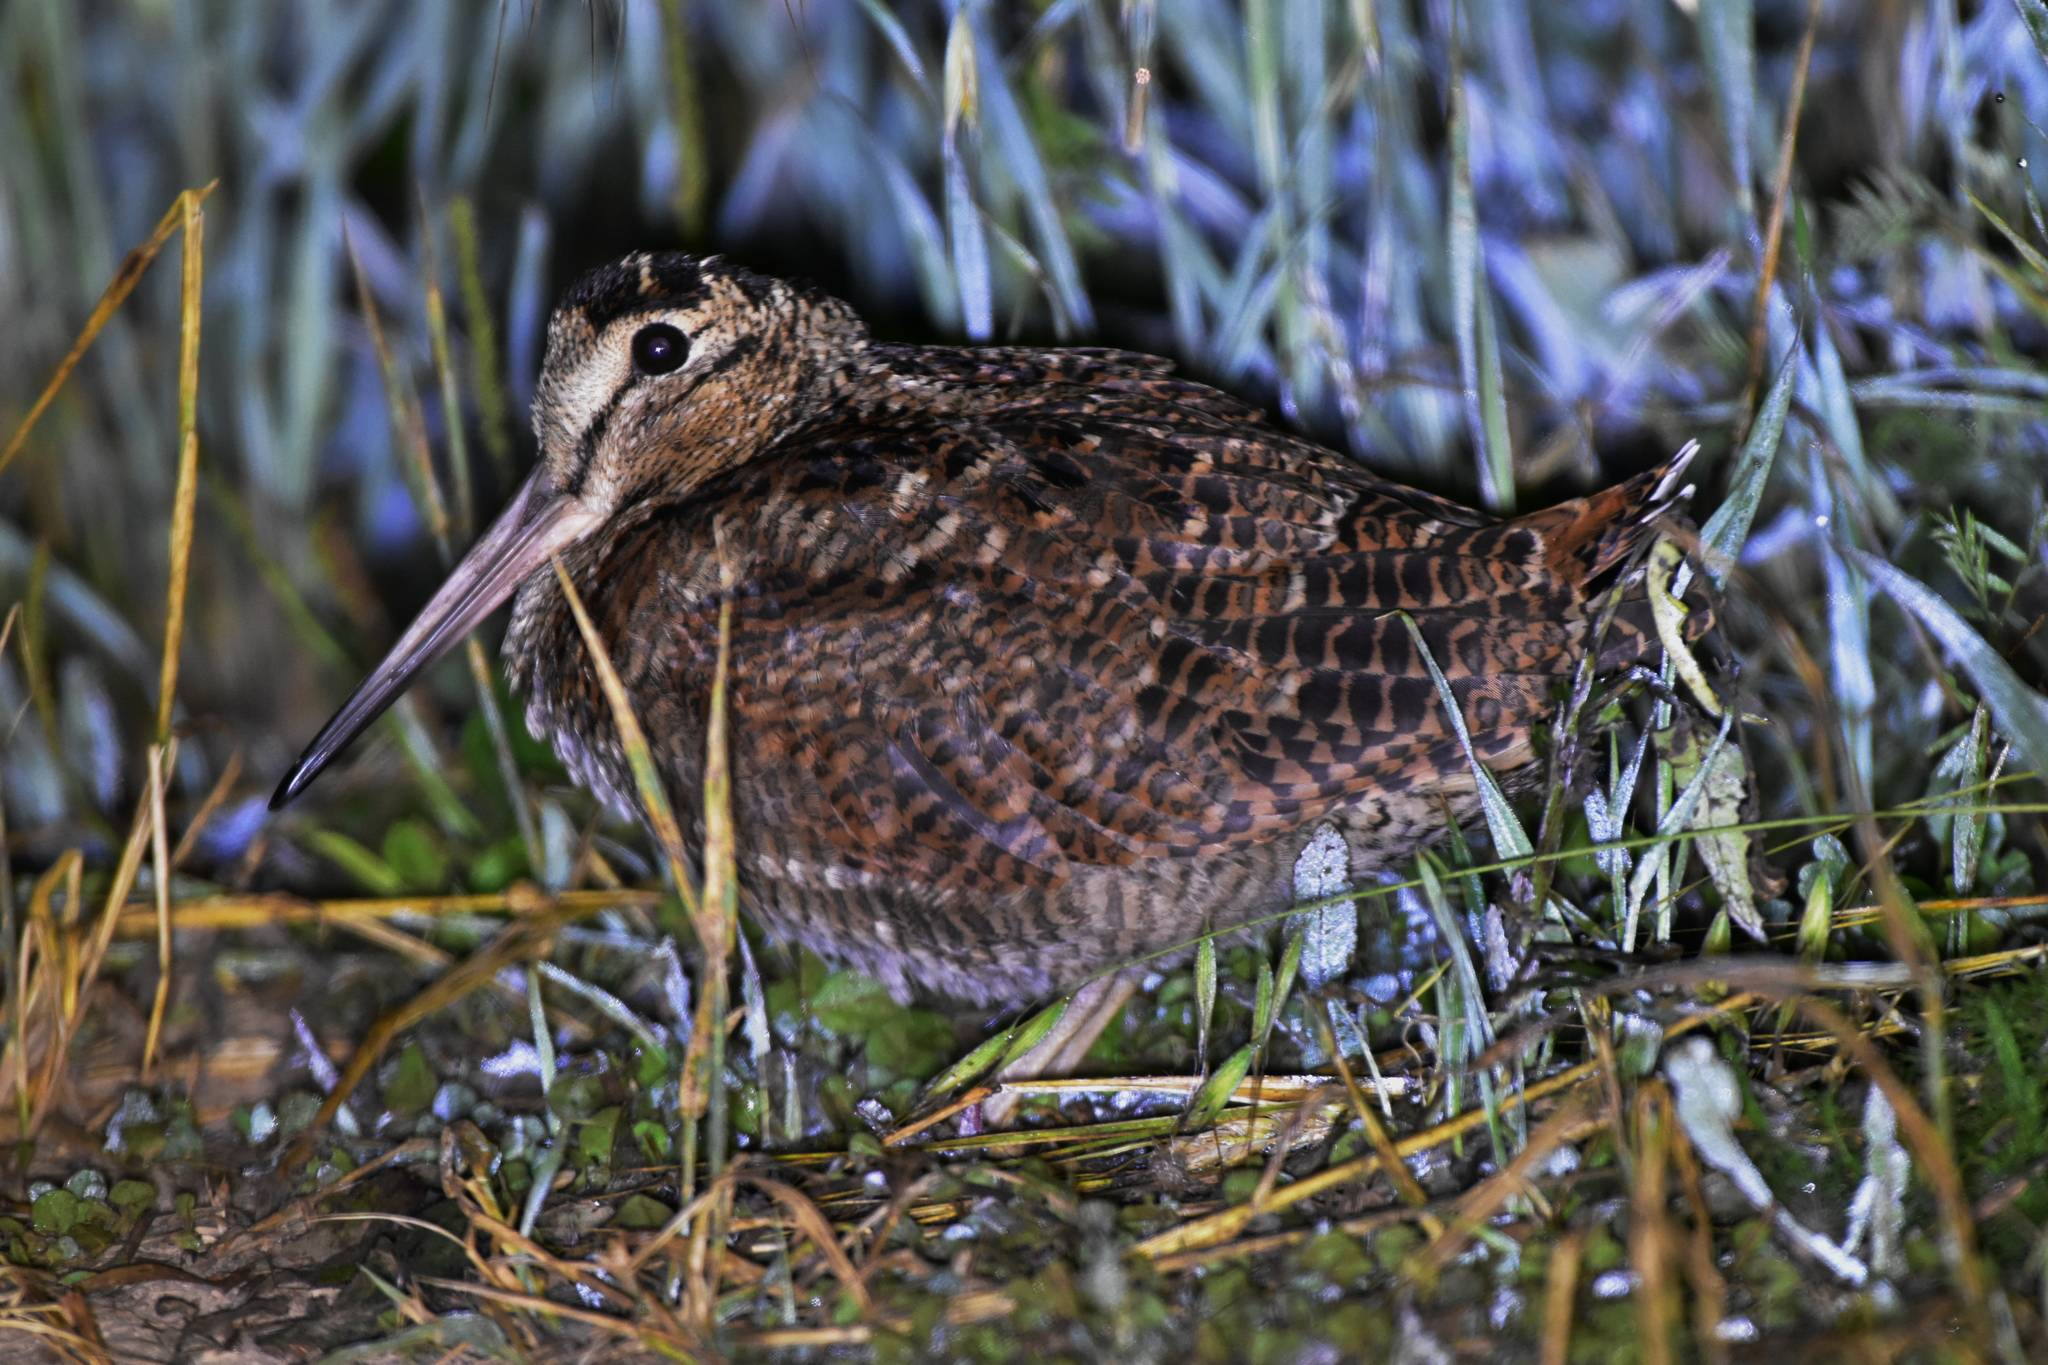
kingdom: Animalia
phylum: Chordata
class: Aves
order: Charadriiformes
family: Scolopacidae
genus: Scolopax
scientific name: Scolopax rusticola
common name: Eurasian woodcock
